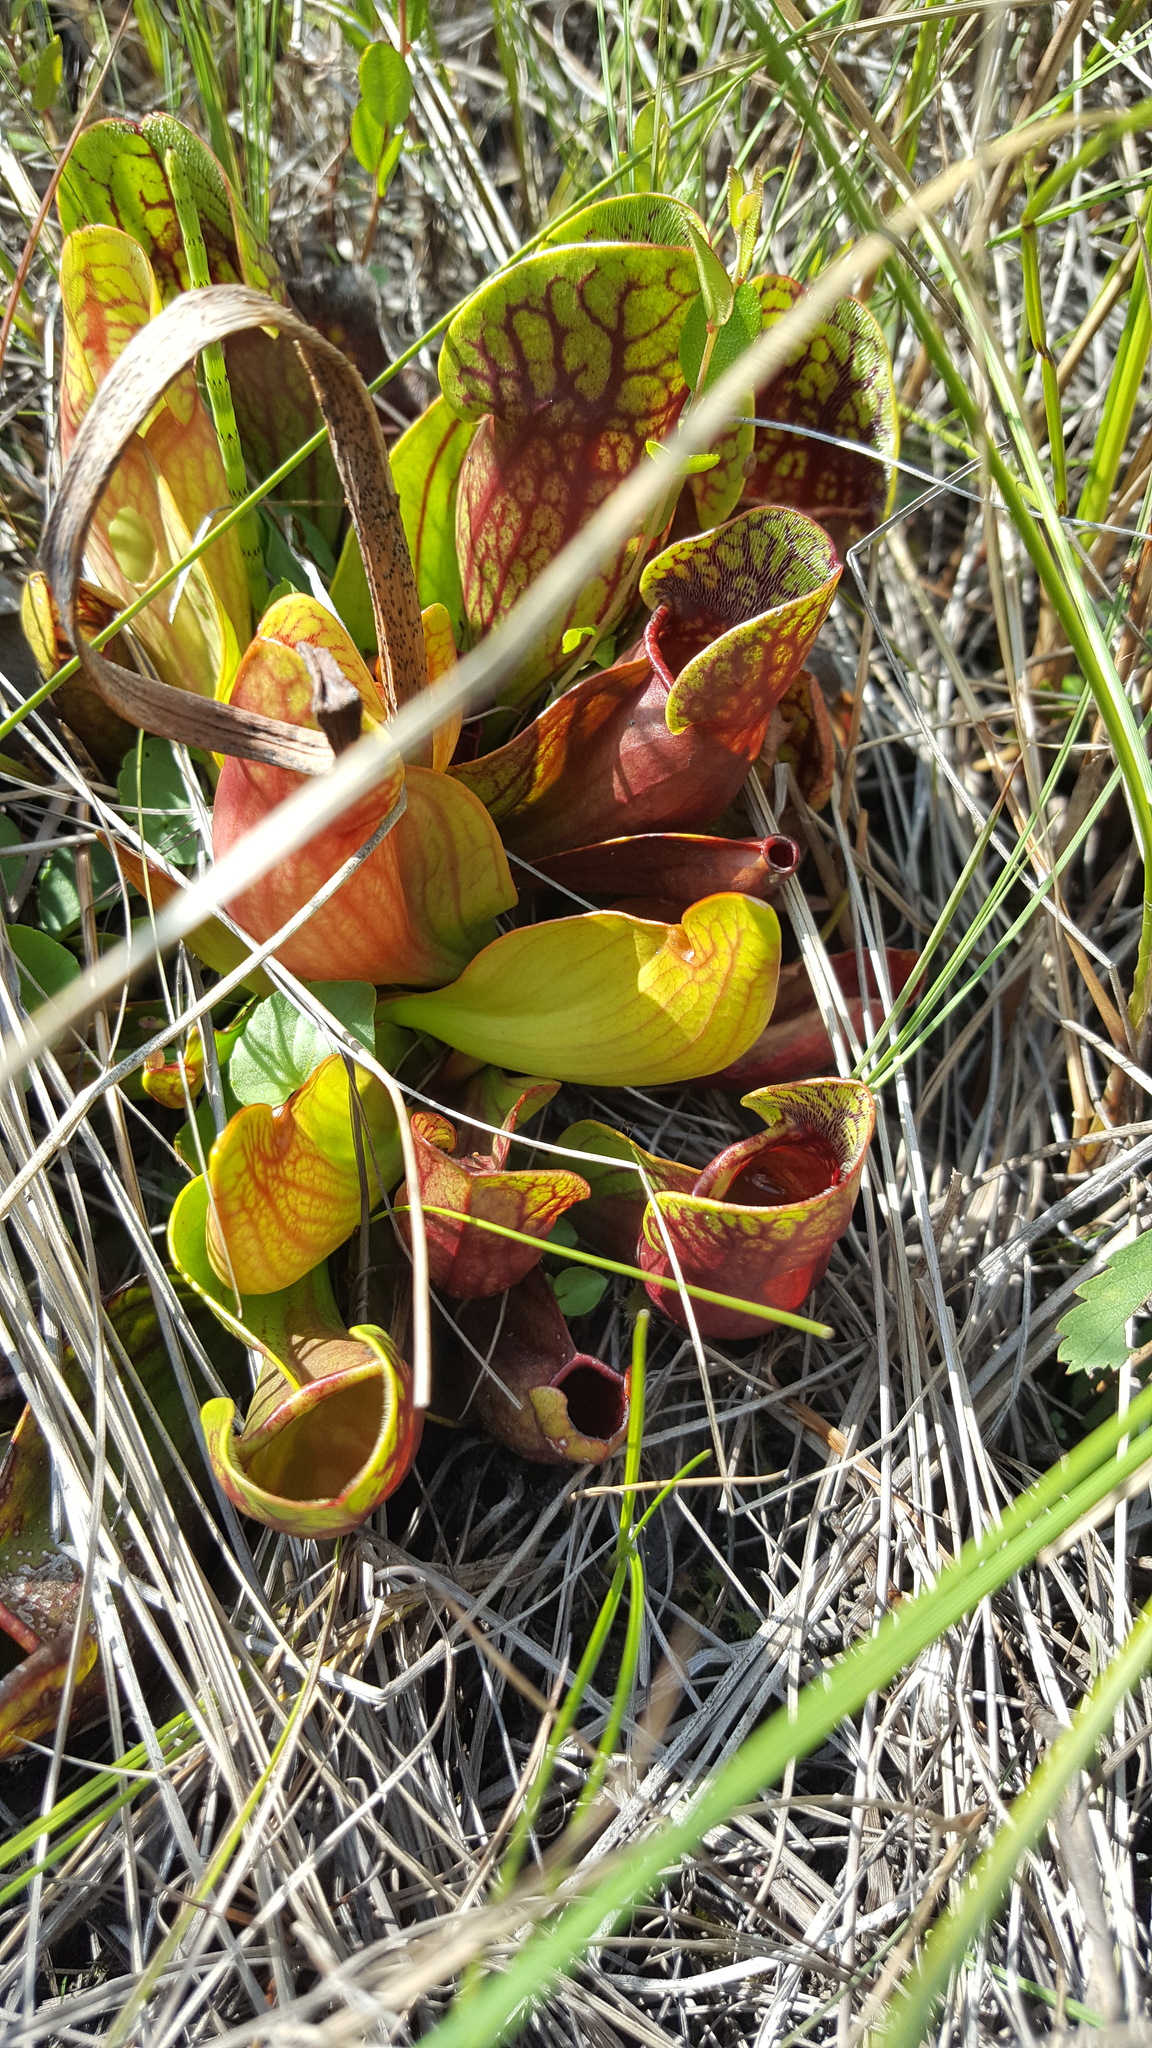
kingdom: Plantae
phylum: Tracheophyta
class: Magnoliopsida
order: Ericales
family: Sarraceniaceae
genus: Sarracenia
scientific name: Sarracenia purpurea
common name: Pitcherplant
